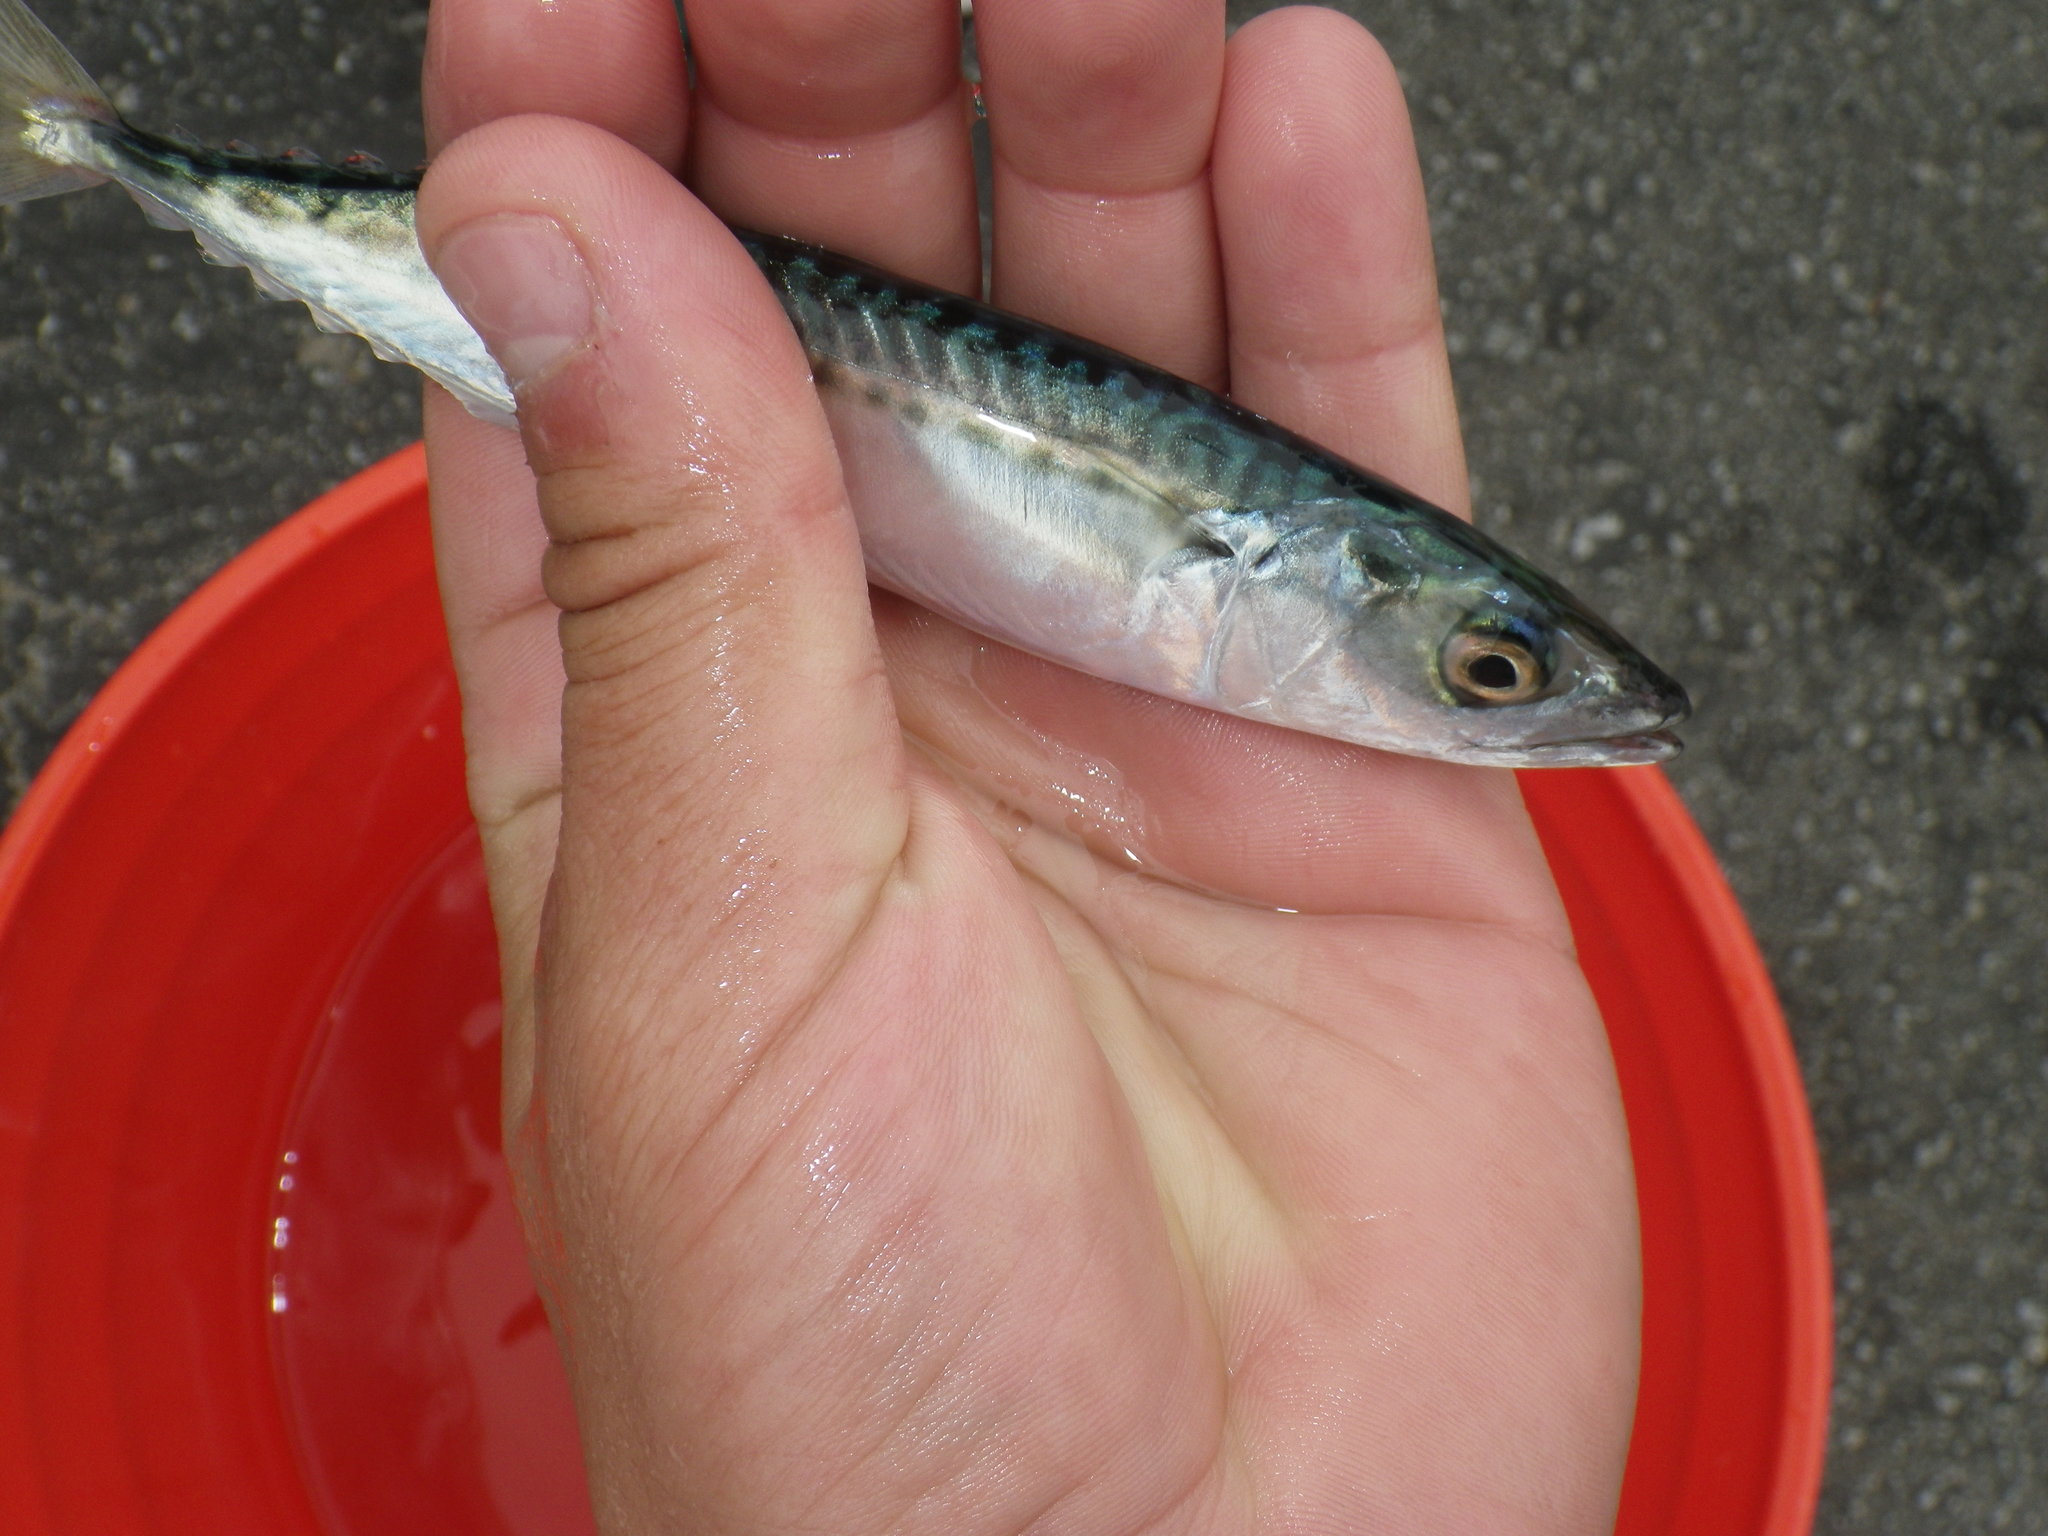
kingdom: Animalia
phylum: Chordata
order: Perciformes
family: Scombridae
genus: Scomber
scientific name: Scomber japonicus
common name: Chub mackerel
